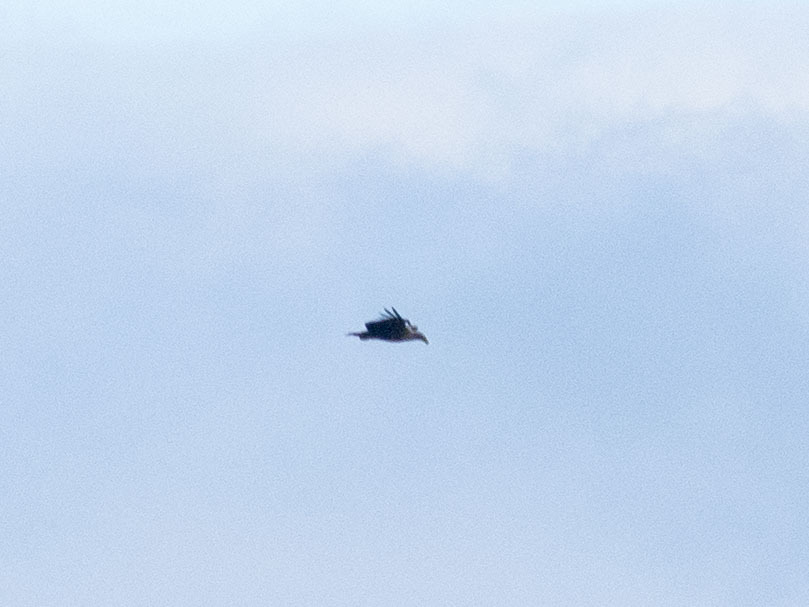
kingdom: Animalia
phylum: Chordata
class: Aves
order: Accipitriformes
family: Accipitridae
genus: Haliaeetus
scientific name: Haliaeetus albicilla
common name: White-tailed eagle
